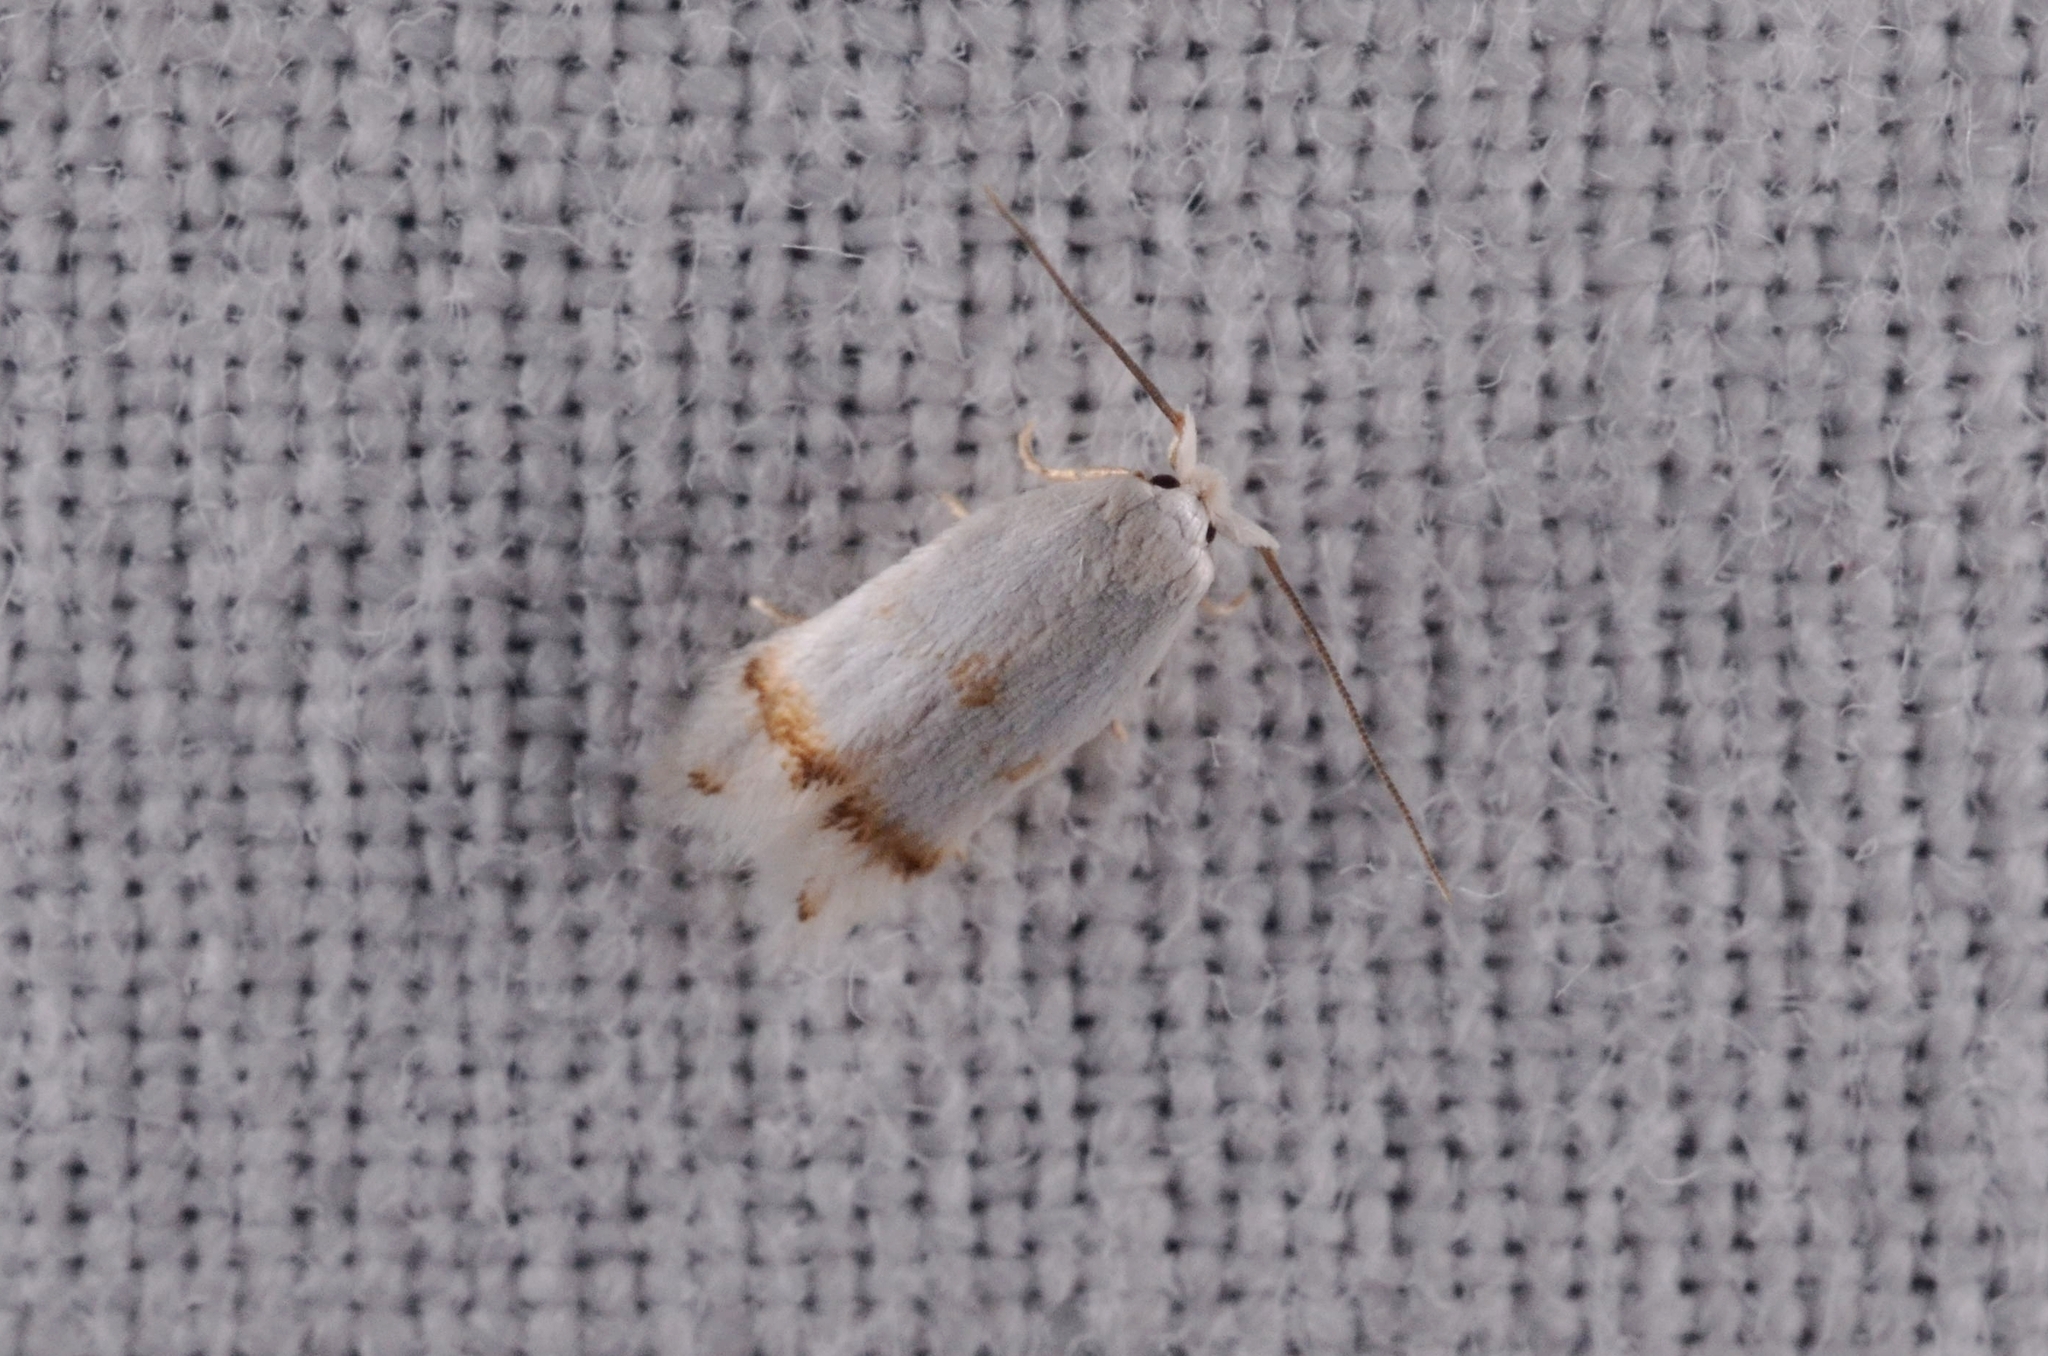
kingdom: Animalia
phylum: Arthropoda
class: Insecta
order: Lepidoptera
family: Opostegidae
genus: Opostega
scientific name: Opostega salaciella
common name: Sorrel bent-wing
